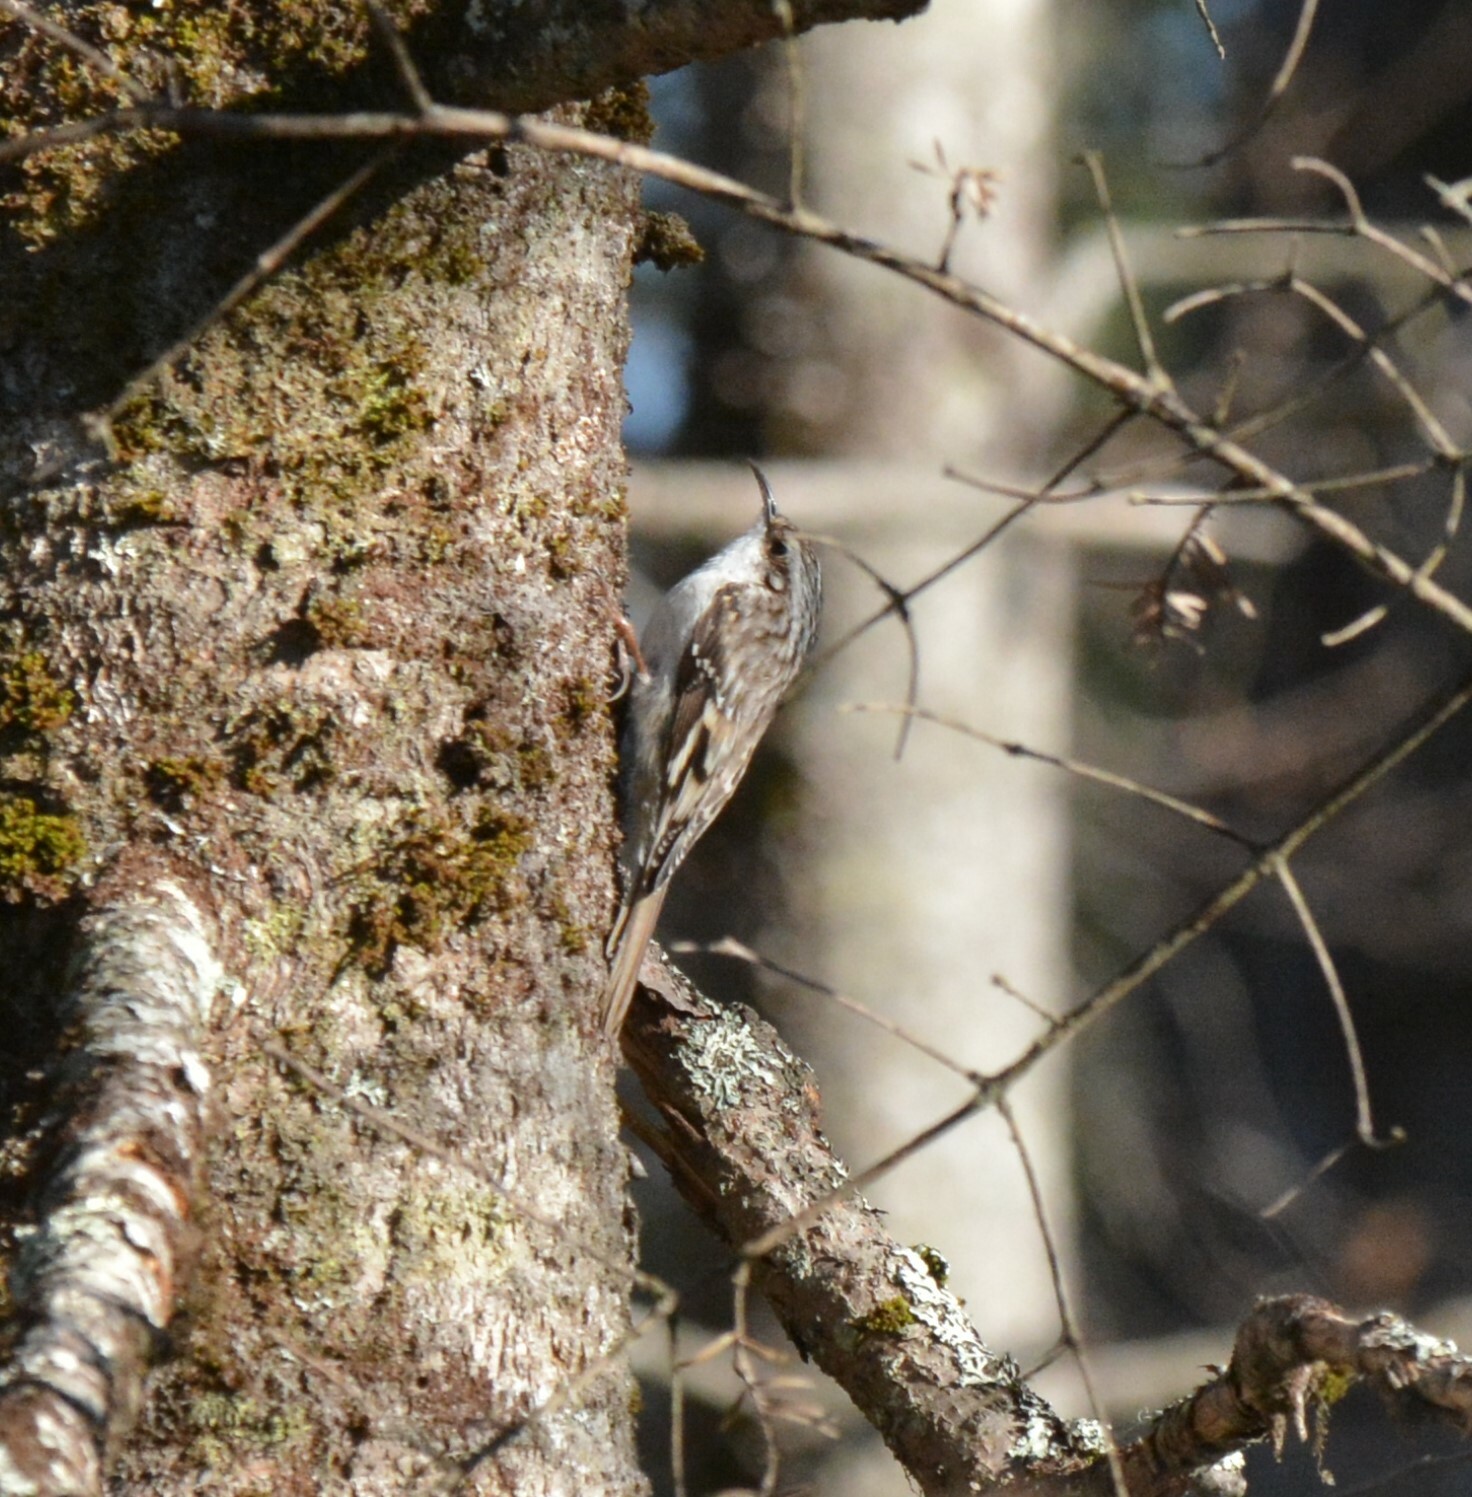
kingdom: Animalia
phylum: Chordata
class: Aves
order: Passeriformes
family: Certhiidae
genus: Certhia
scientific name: Certhia americana
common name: Brown creeper
